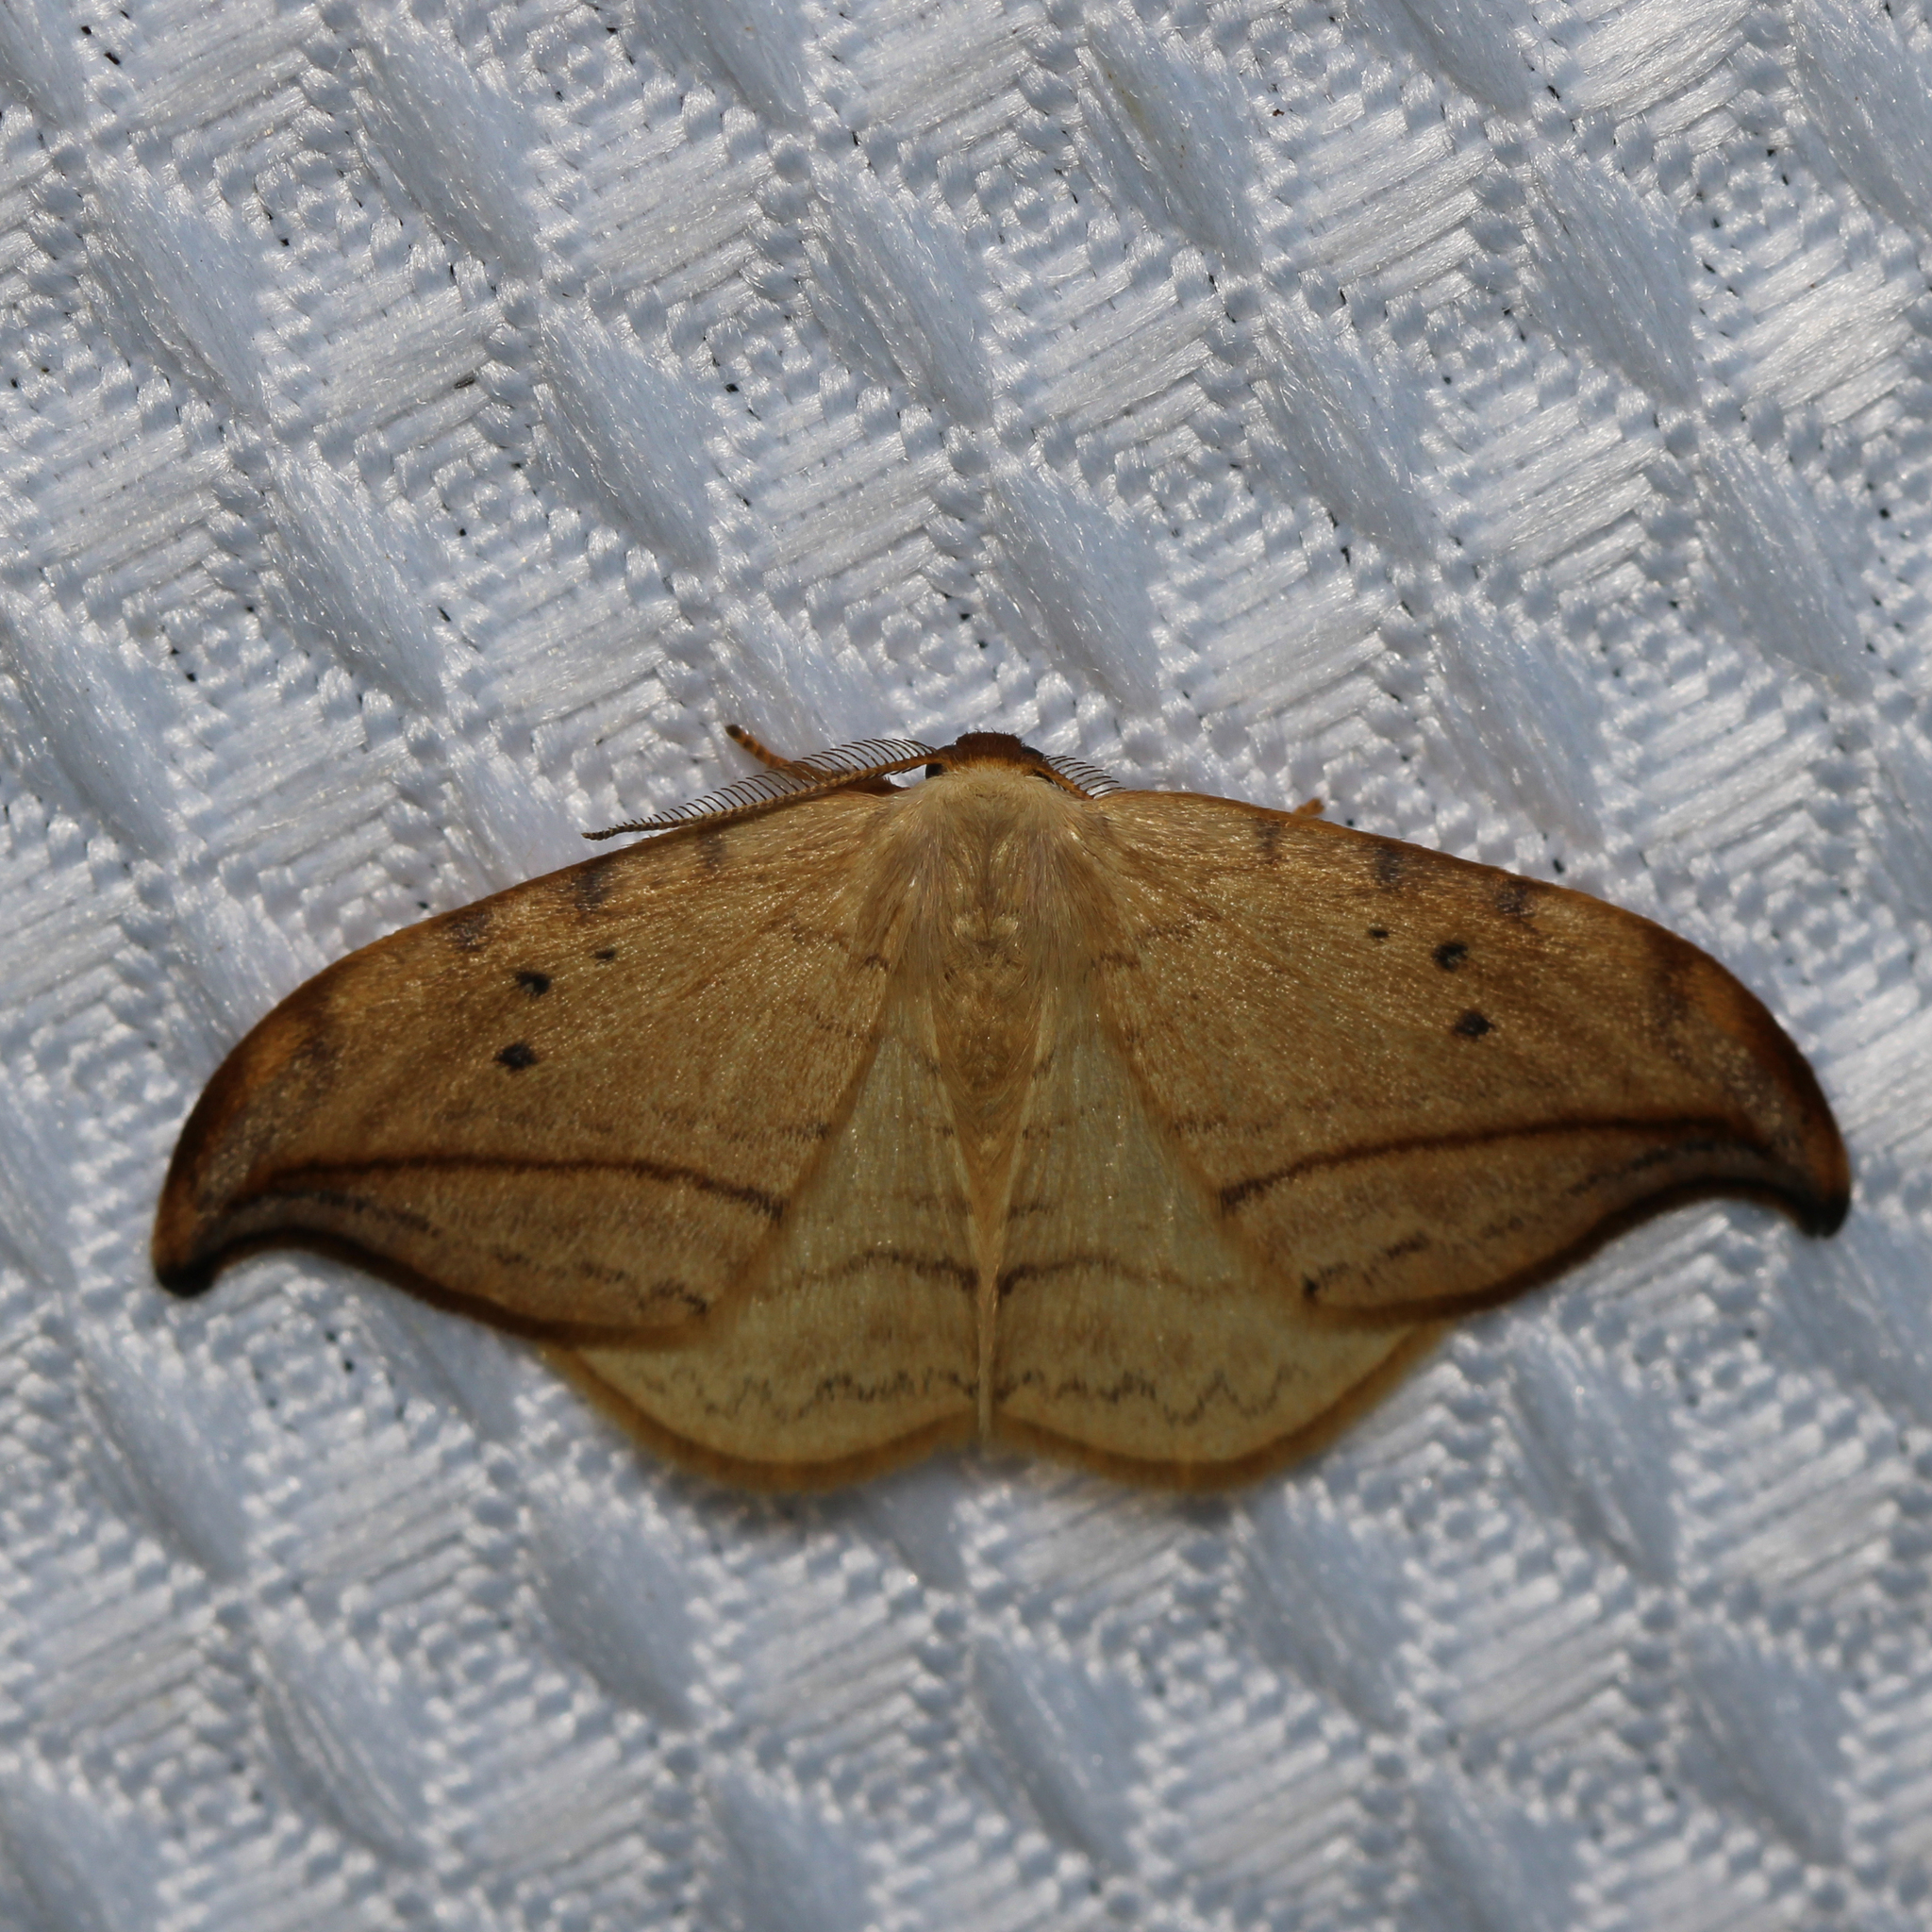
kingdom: Animalia
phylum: Arthropoda
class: Insecta
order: Lepidoptera
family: Drepanidae
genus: Drepana
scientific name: Drepana arcuata
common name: Arched hooktip moth
